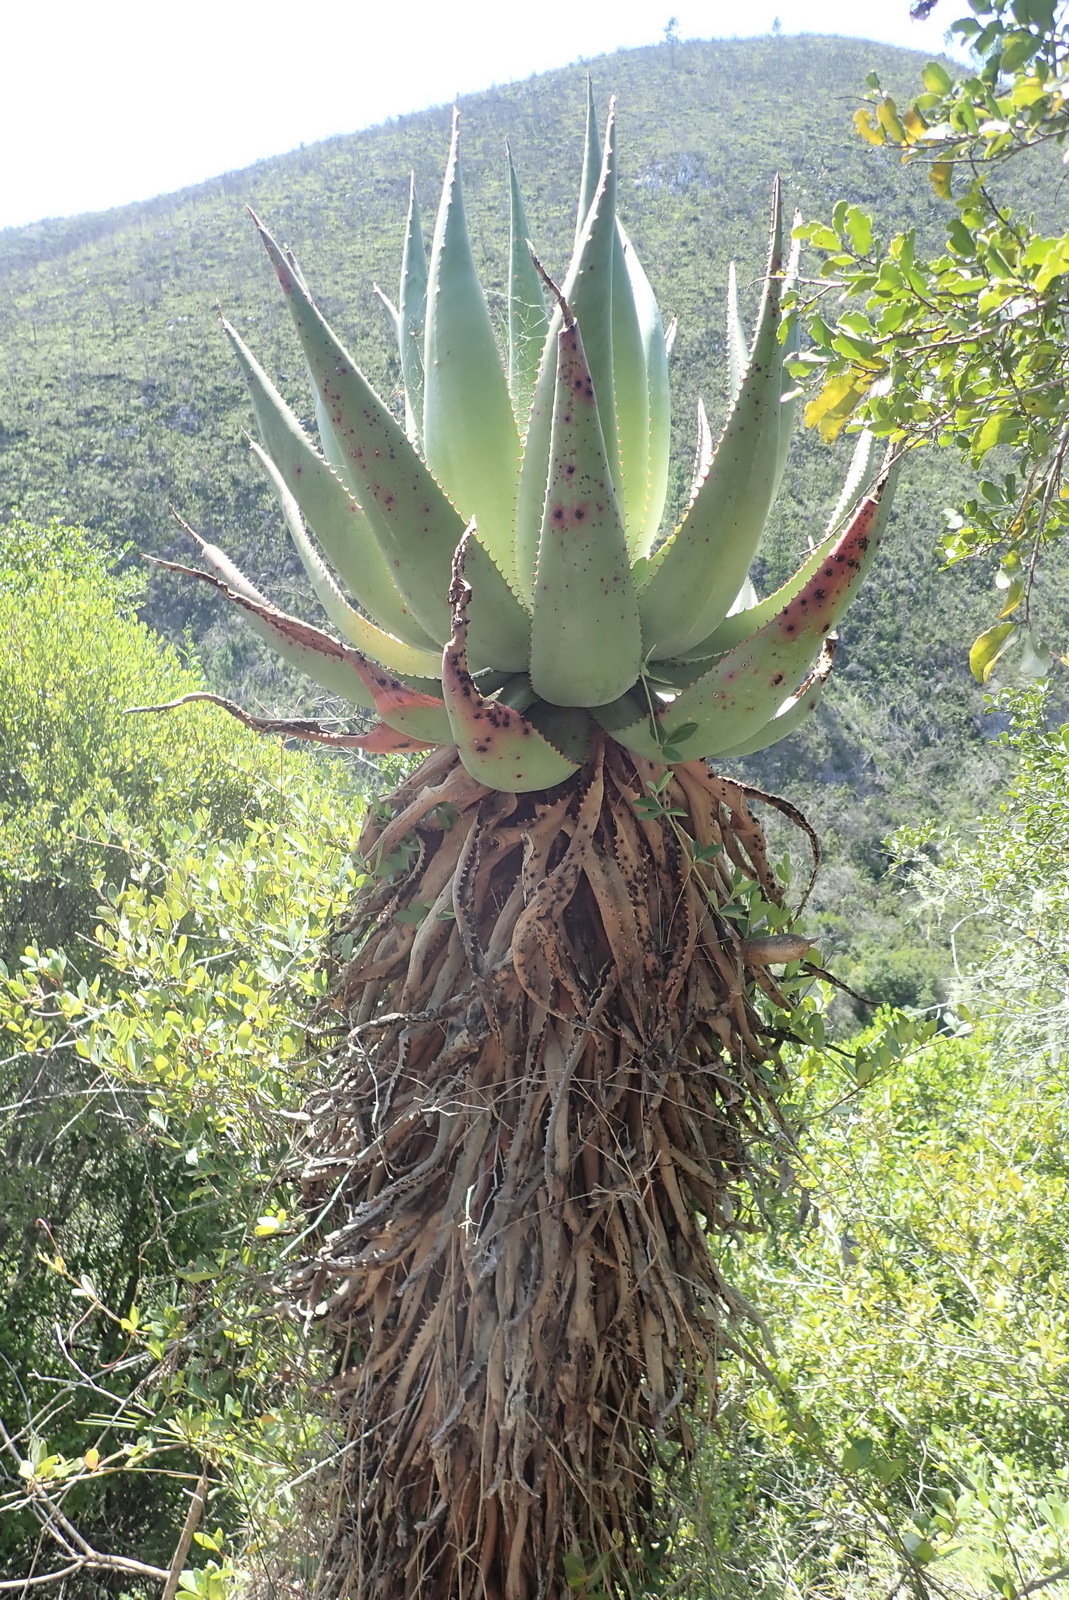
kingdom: Plantae
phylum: Tracheophyta
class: Liliopsida
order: Asparagales
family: Asphodelaceae
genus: Aloe
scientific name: Aloe ferox
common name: Bitter aloe
